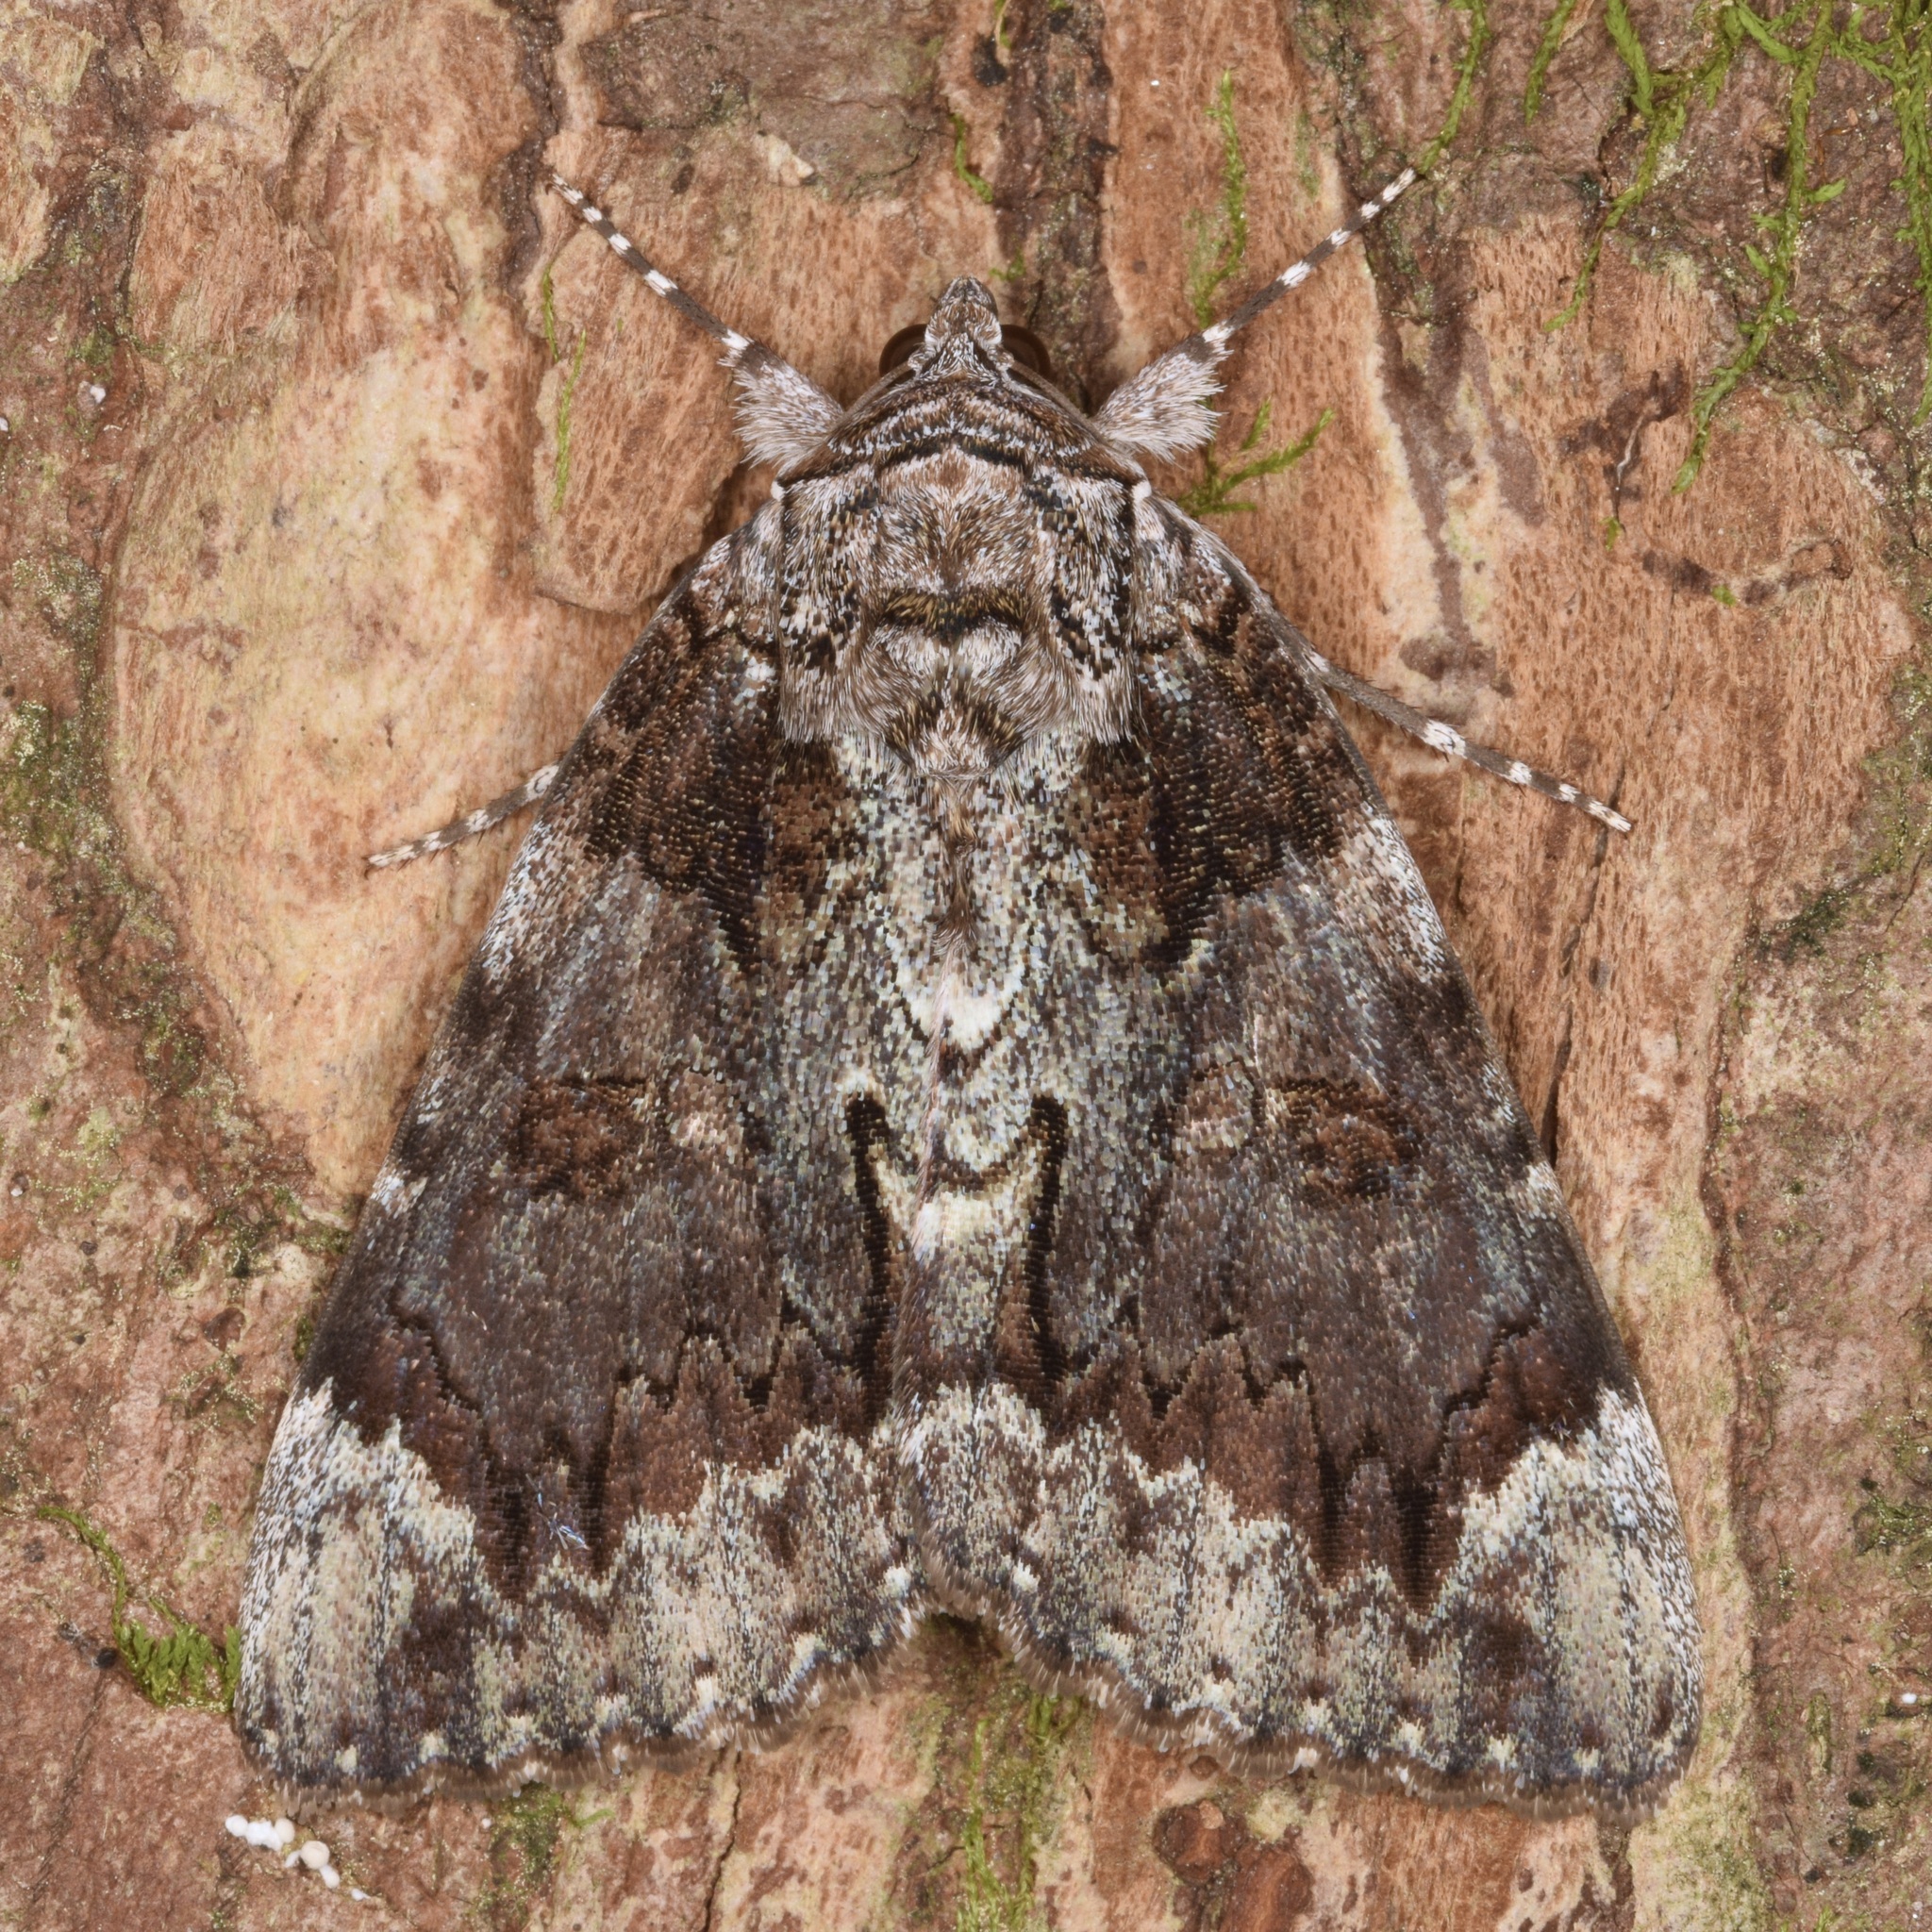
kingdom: Animalia
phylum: Arthropoda
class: Insecta
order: Lepidoptera
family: Erebidae
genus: Catocala
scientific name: Catocala lacrymosa
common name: Tearful underwing
